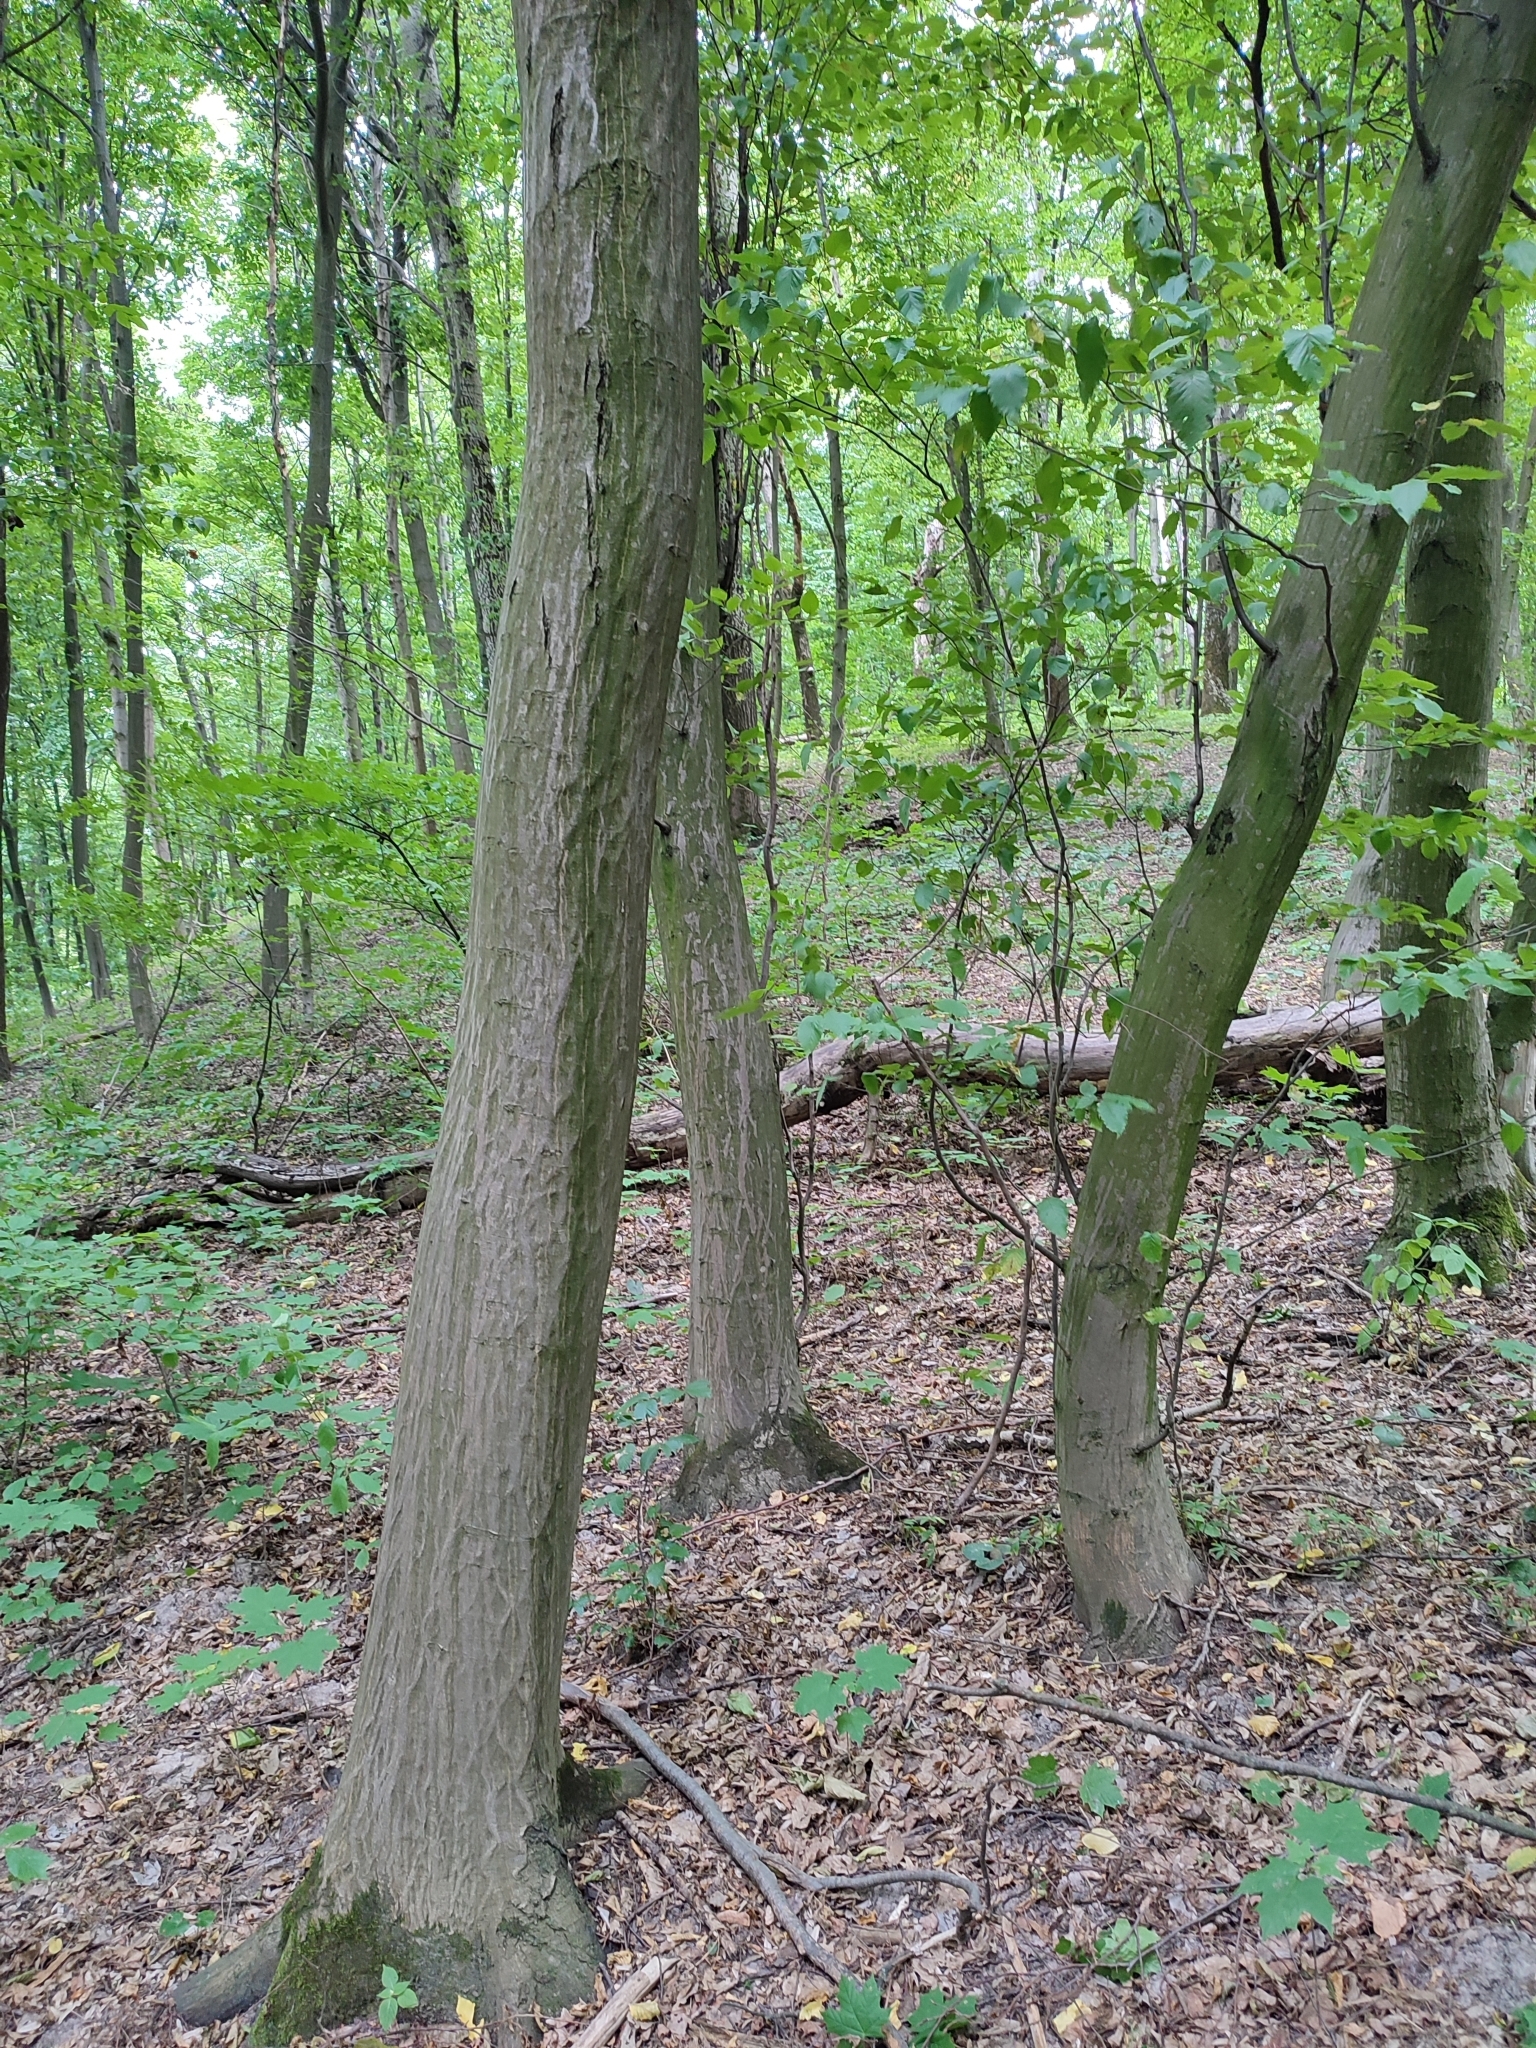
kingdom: Plantae
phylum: Tracheophyta
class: Magnoliopsida
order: Fagales
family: Betulaceae
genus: Carpinus
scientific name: Carpinus betulus
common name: Hornbeam
